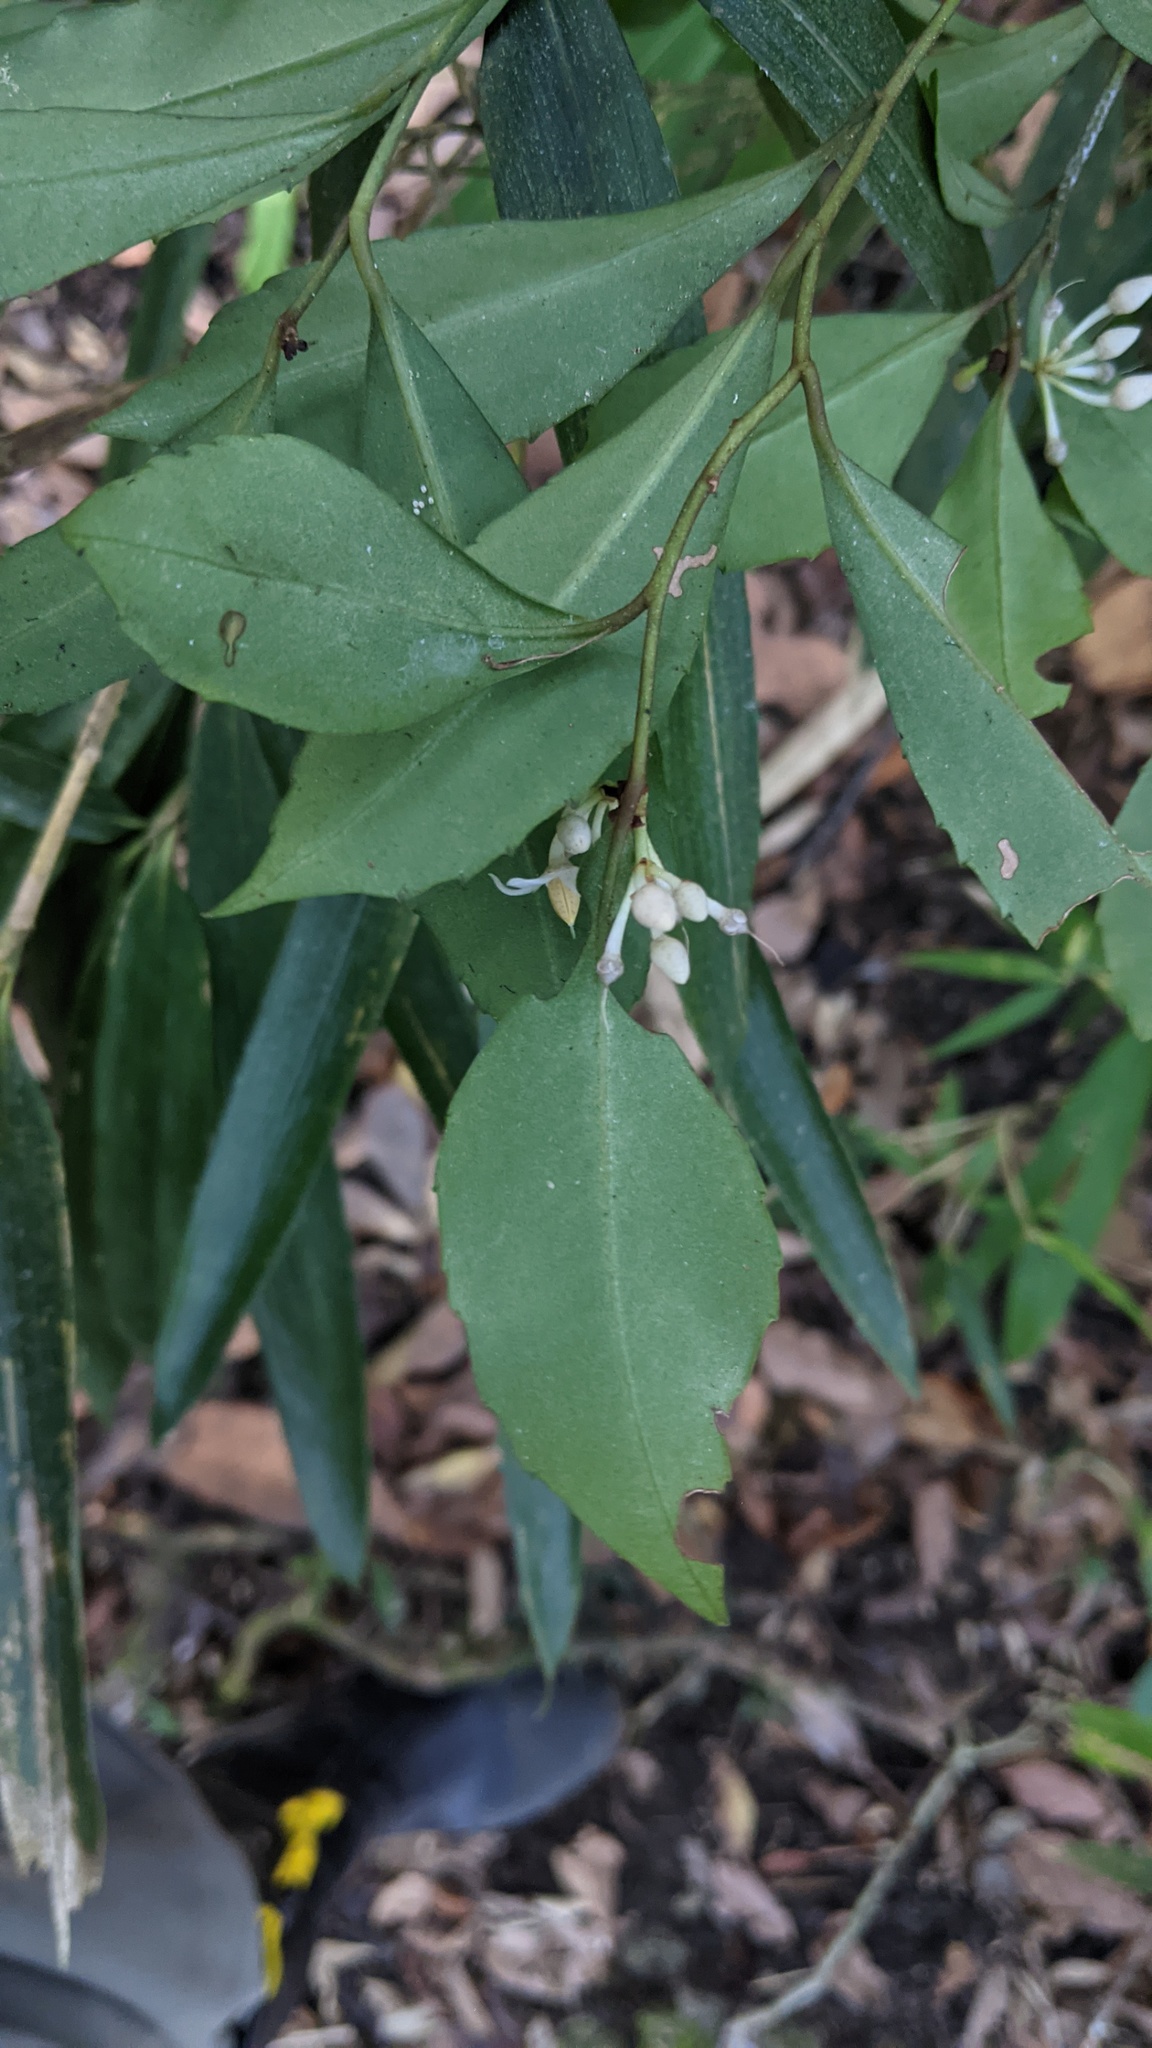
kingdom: Plantae
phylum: Tracheophyta
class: Magnoliopsida
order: Ericales
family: Primulaceae
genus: Ardisia
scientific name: Ardisia cornudentata
